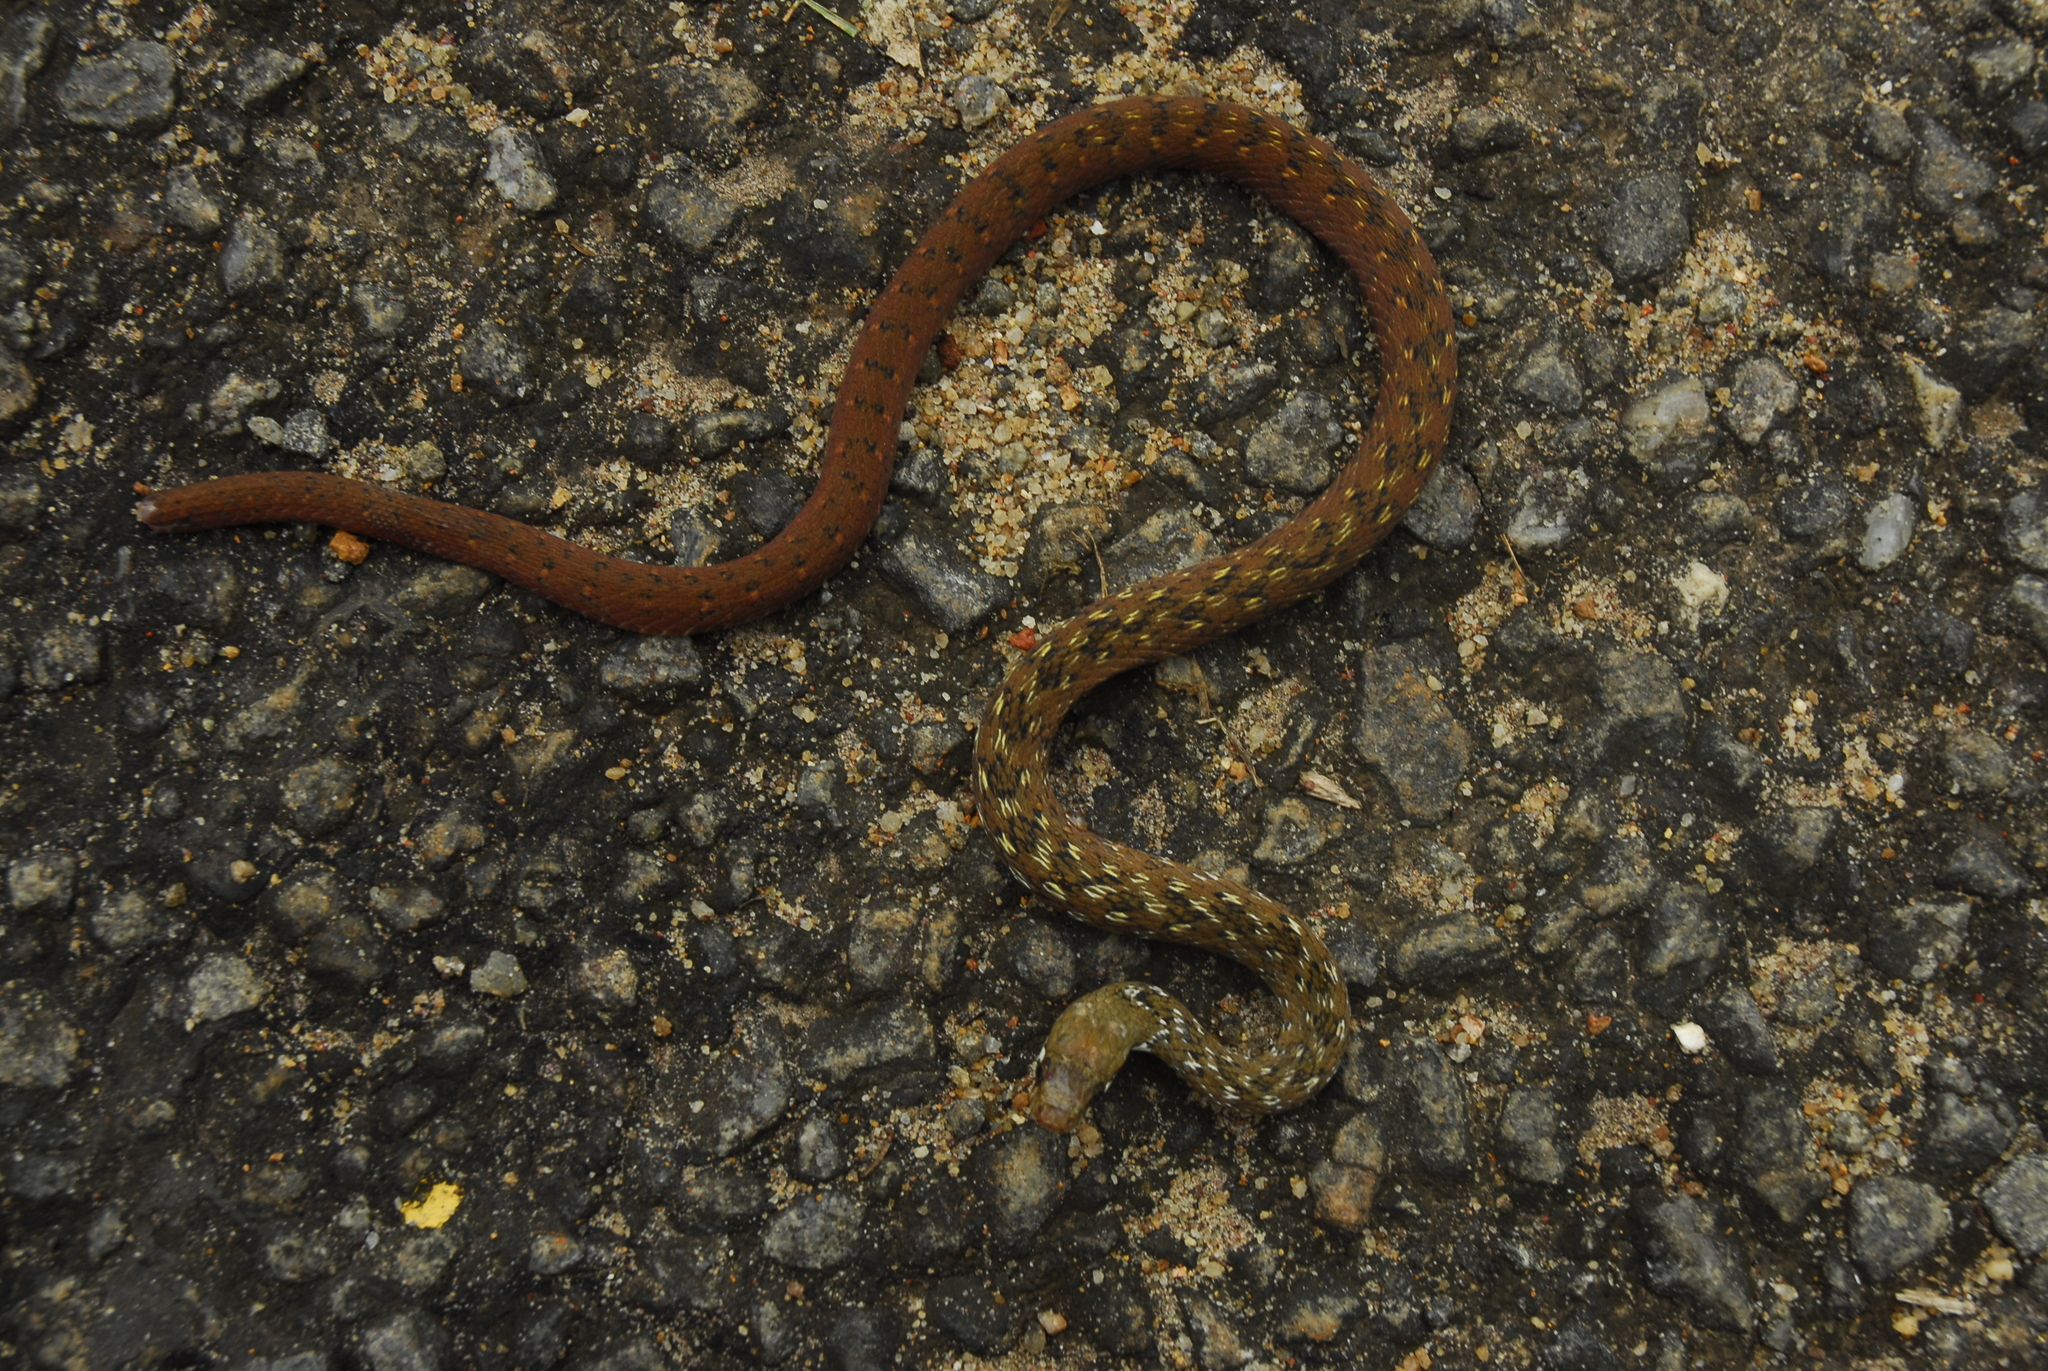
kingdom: Animalia
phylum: Chordata
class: Squamata
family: Colubridae
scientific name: Colubridae
